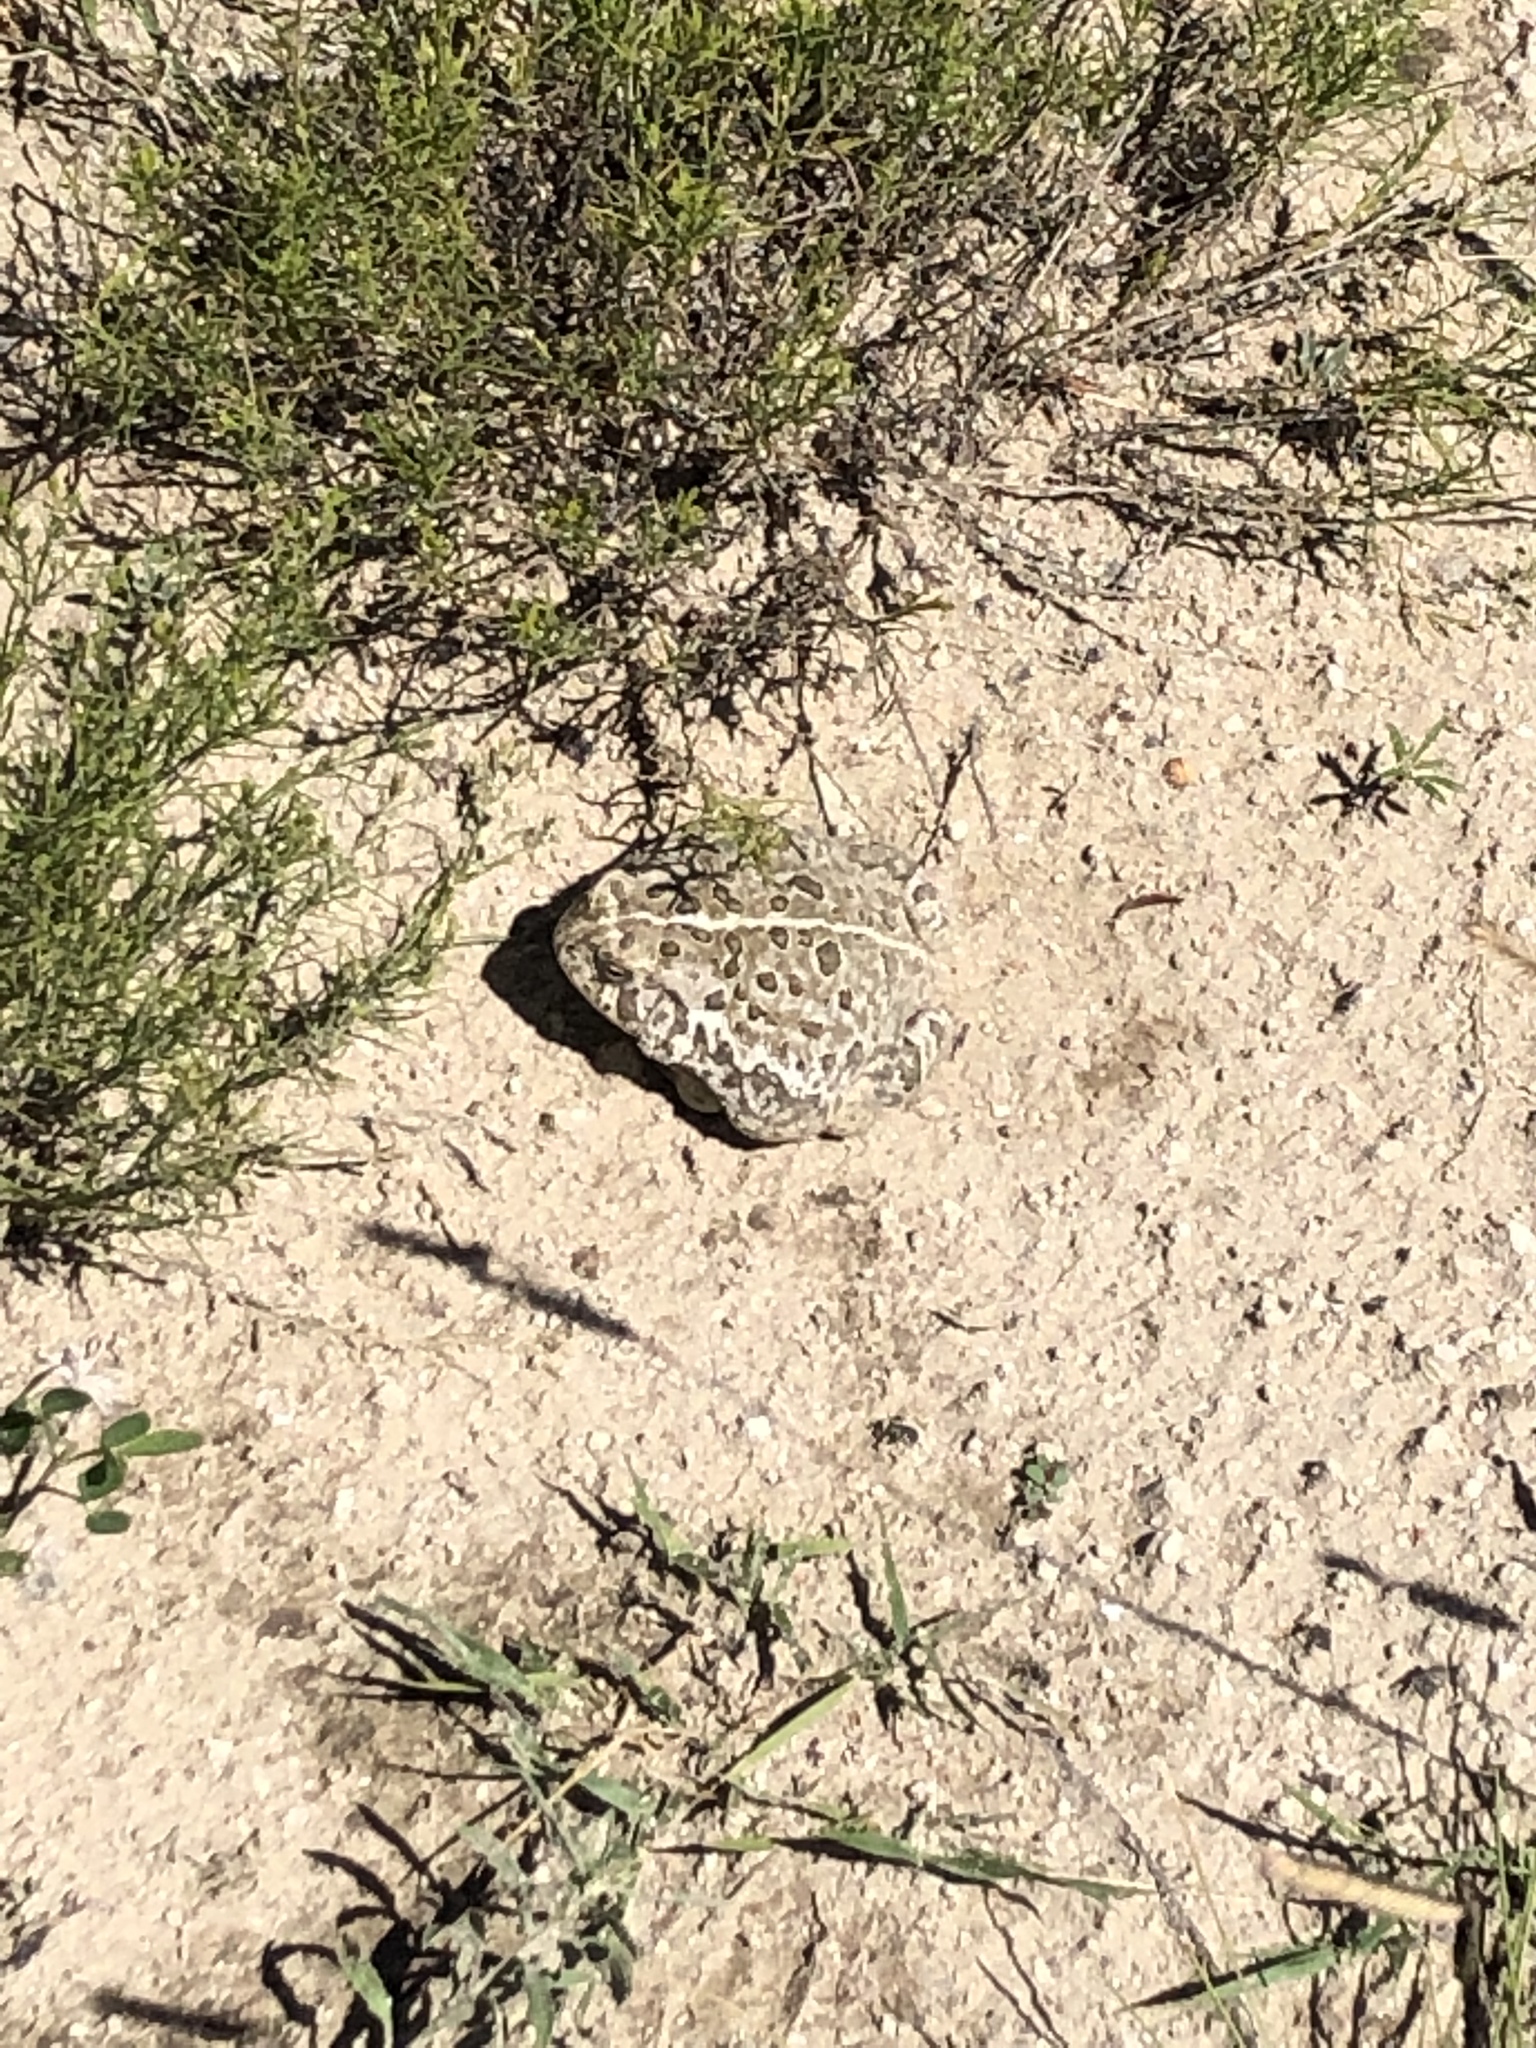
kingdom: Animalia
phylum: Chordata
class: Amphibia
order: Anura
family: Bufonidae
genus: Anaxyrus
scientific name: Anaxyrus woodhousii
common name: Woodhouse's toad
